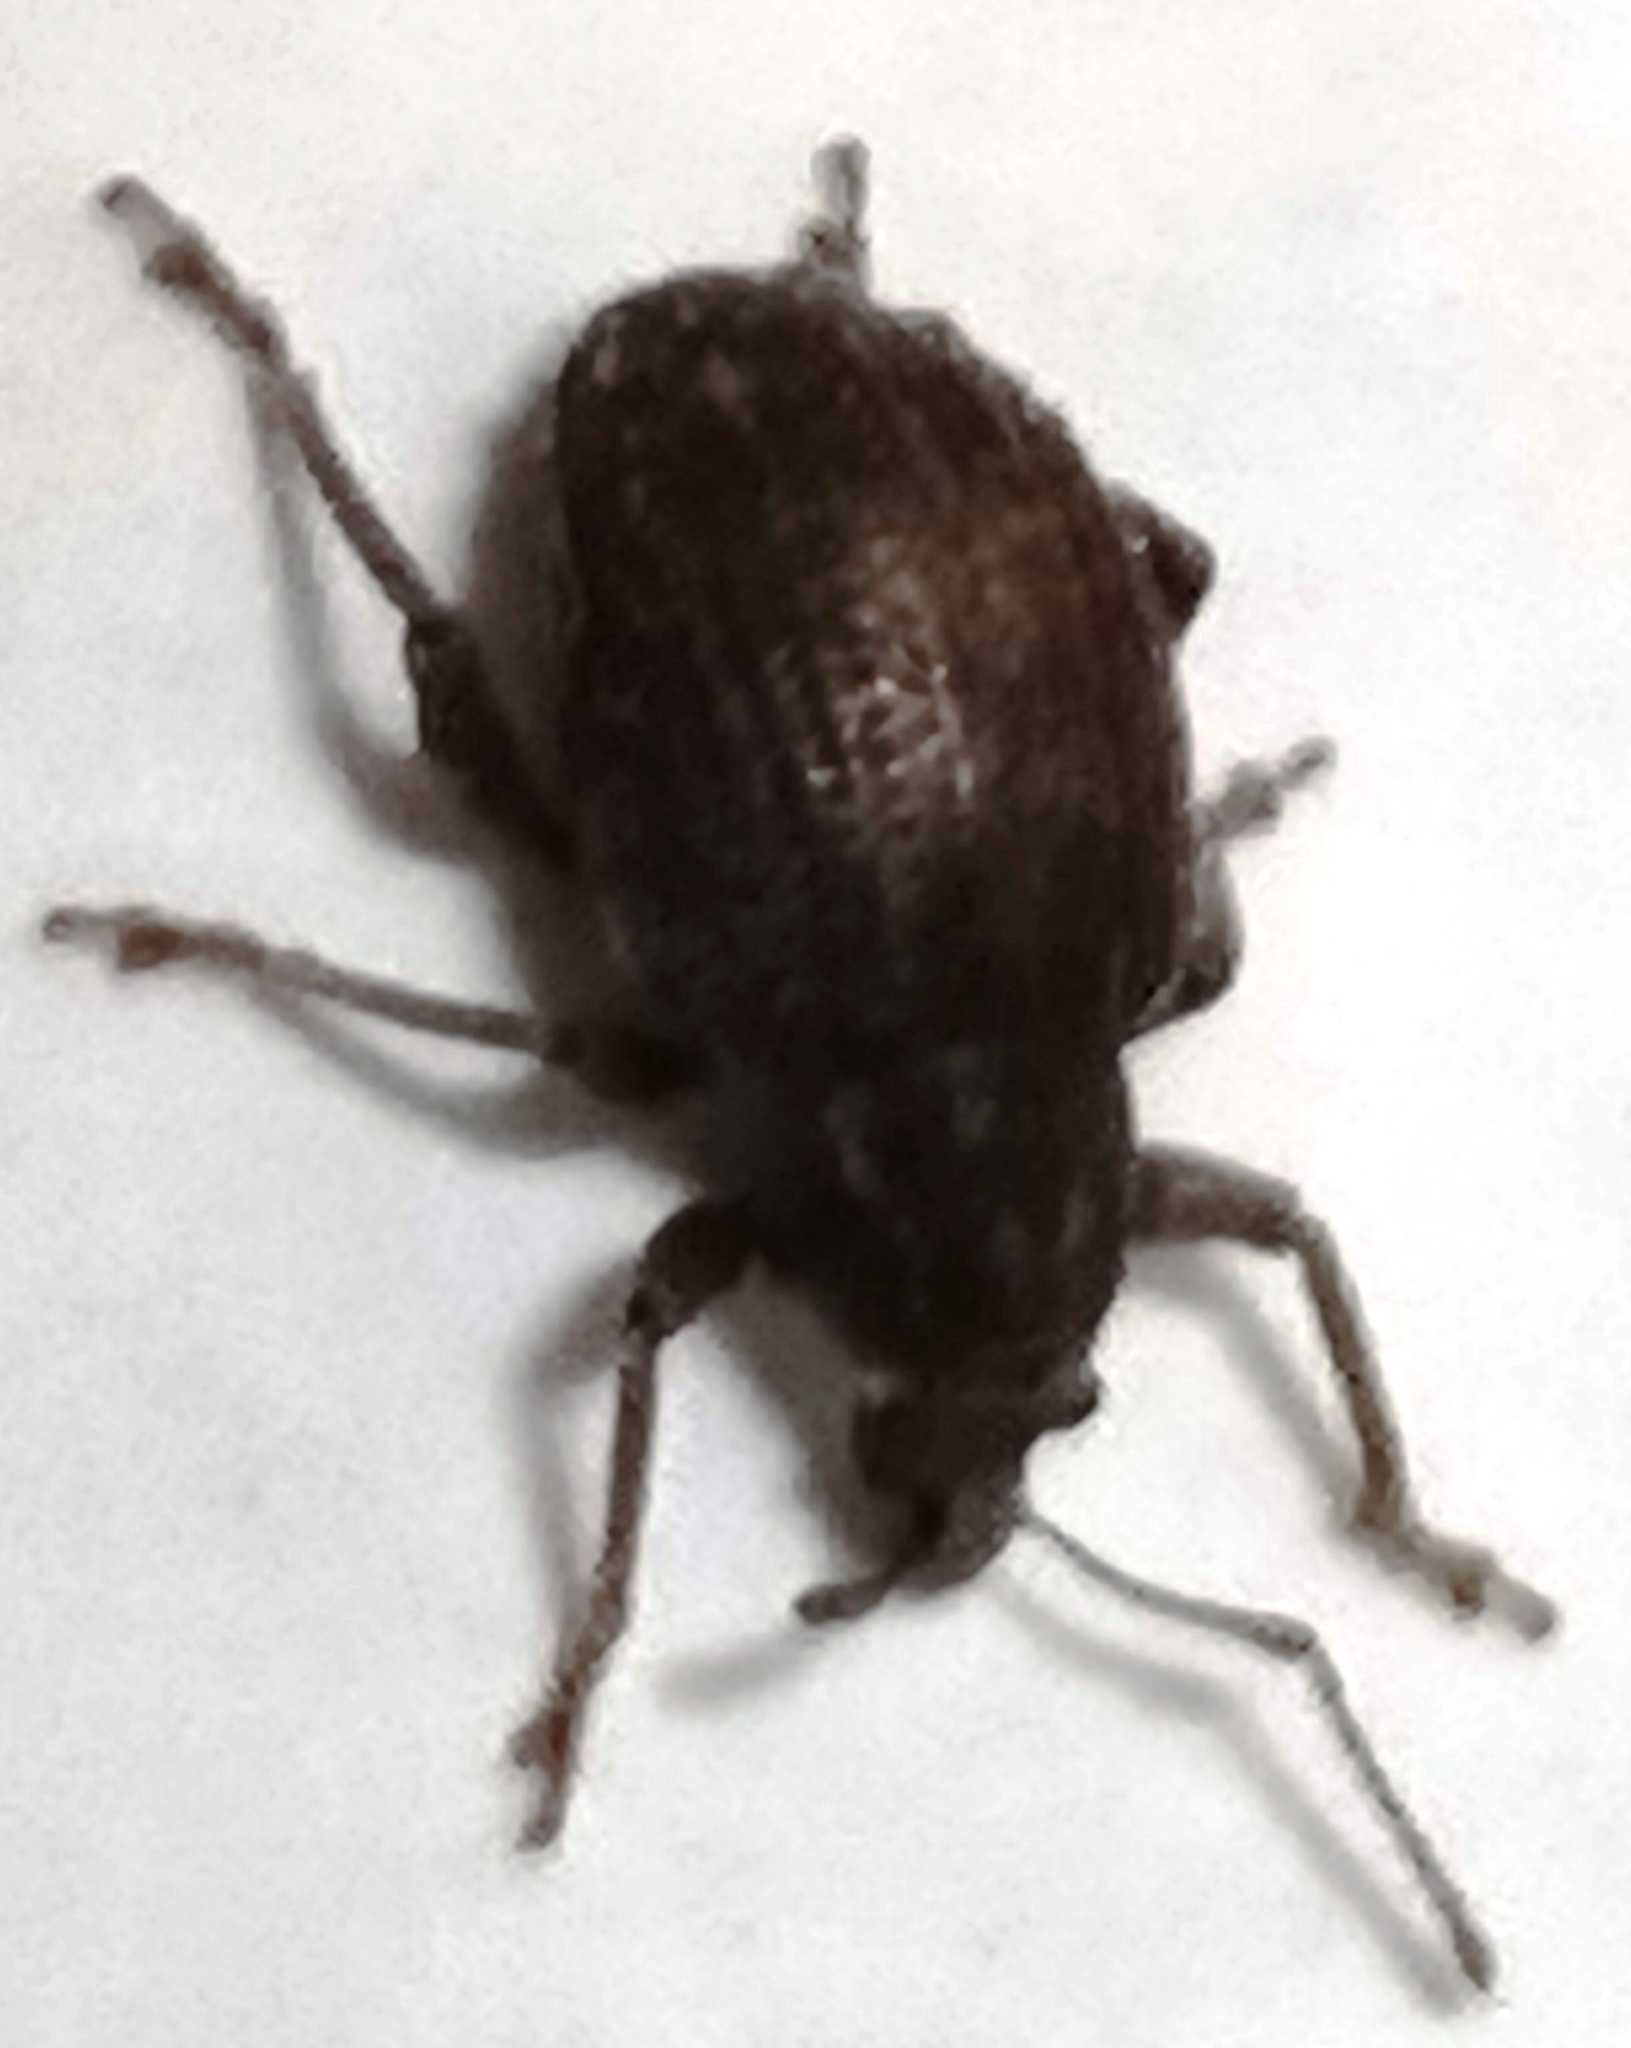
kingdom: Animalia
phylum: Arthropoda
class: Insecta
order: Coleoptera
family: Curculionidae
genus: Phlyctinus
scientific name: Phlyctinus callosus
